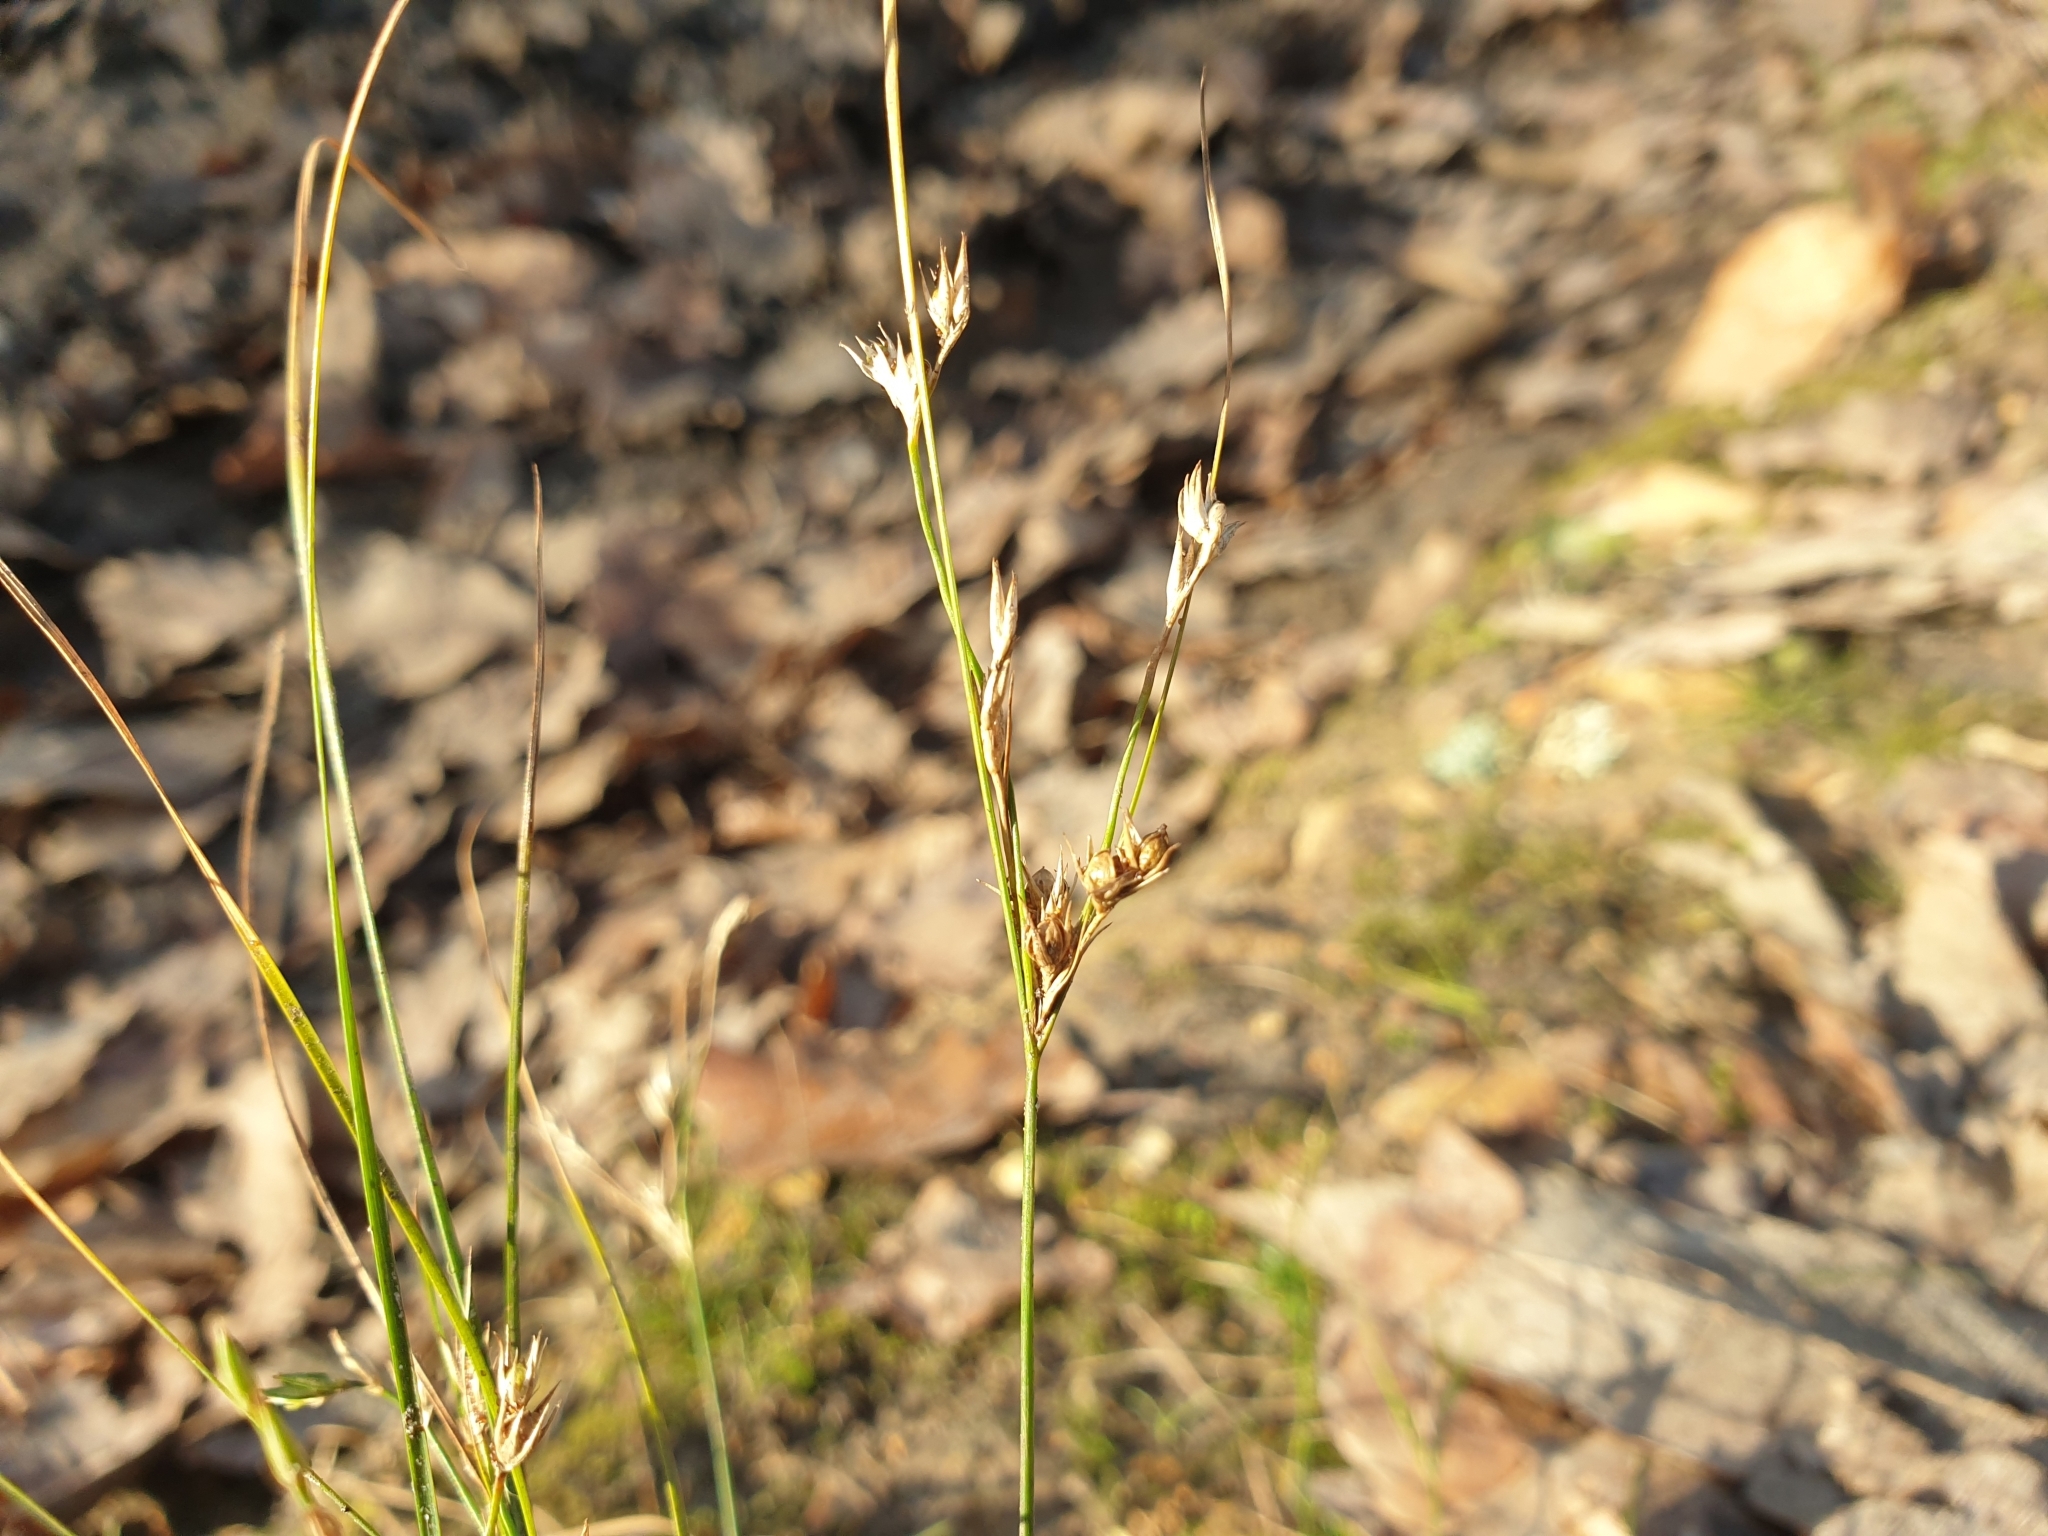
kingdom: Plantae
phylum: Tracheophyta
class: Liliopsida
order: Poales
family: Juncaceae
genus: Juncus
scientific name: Juncus tenuis
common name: Slender rush
